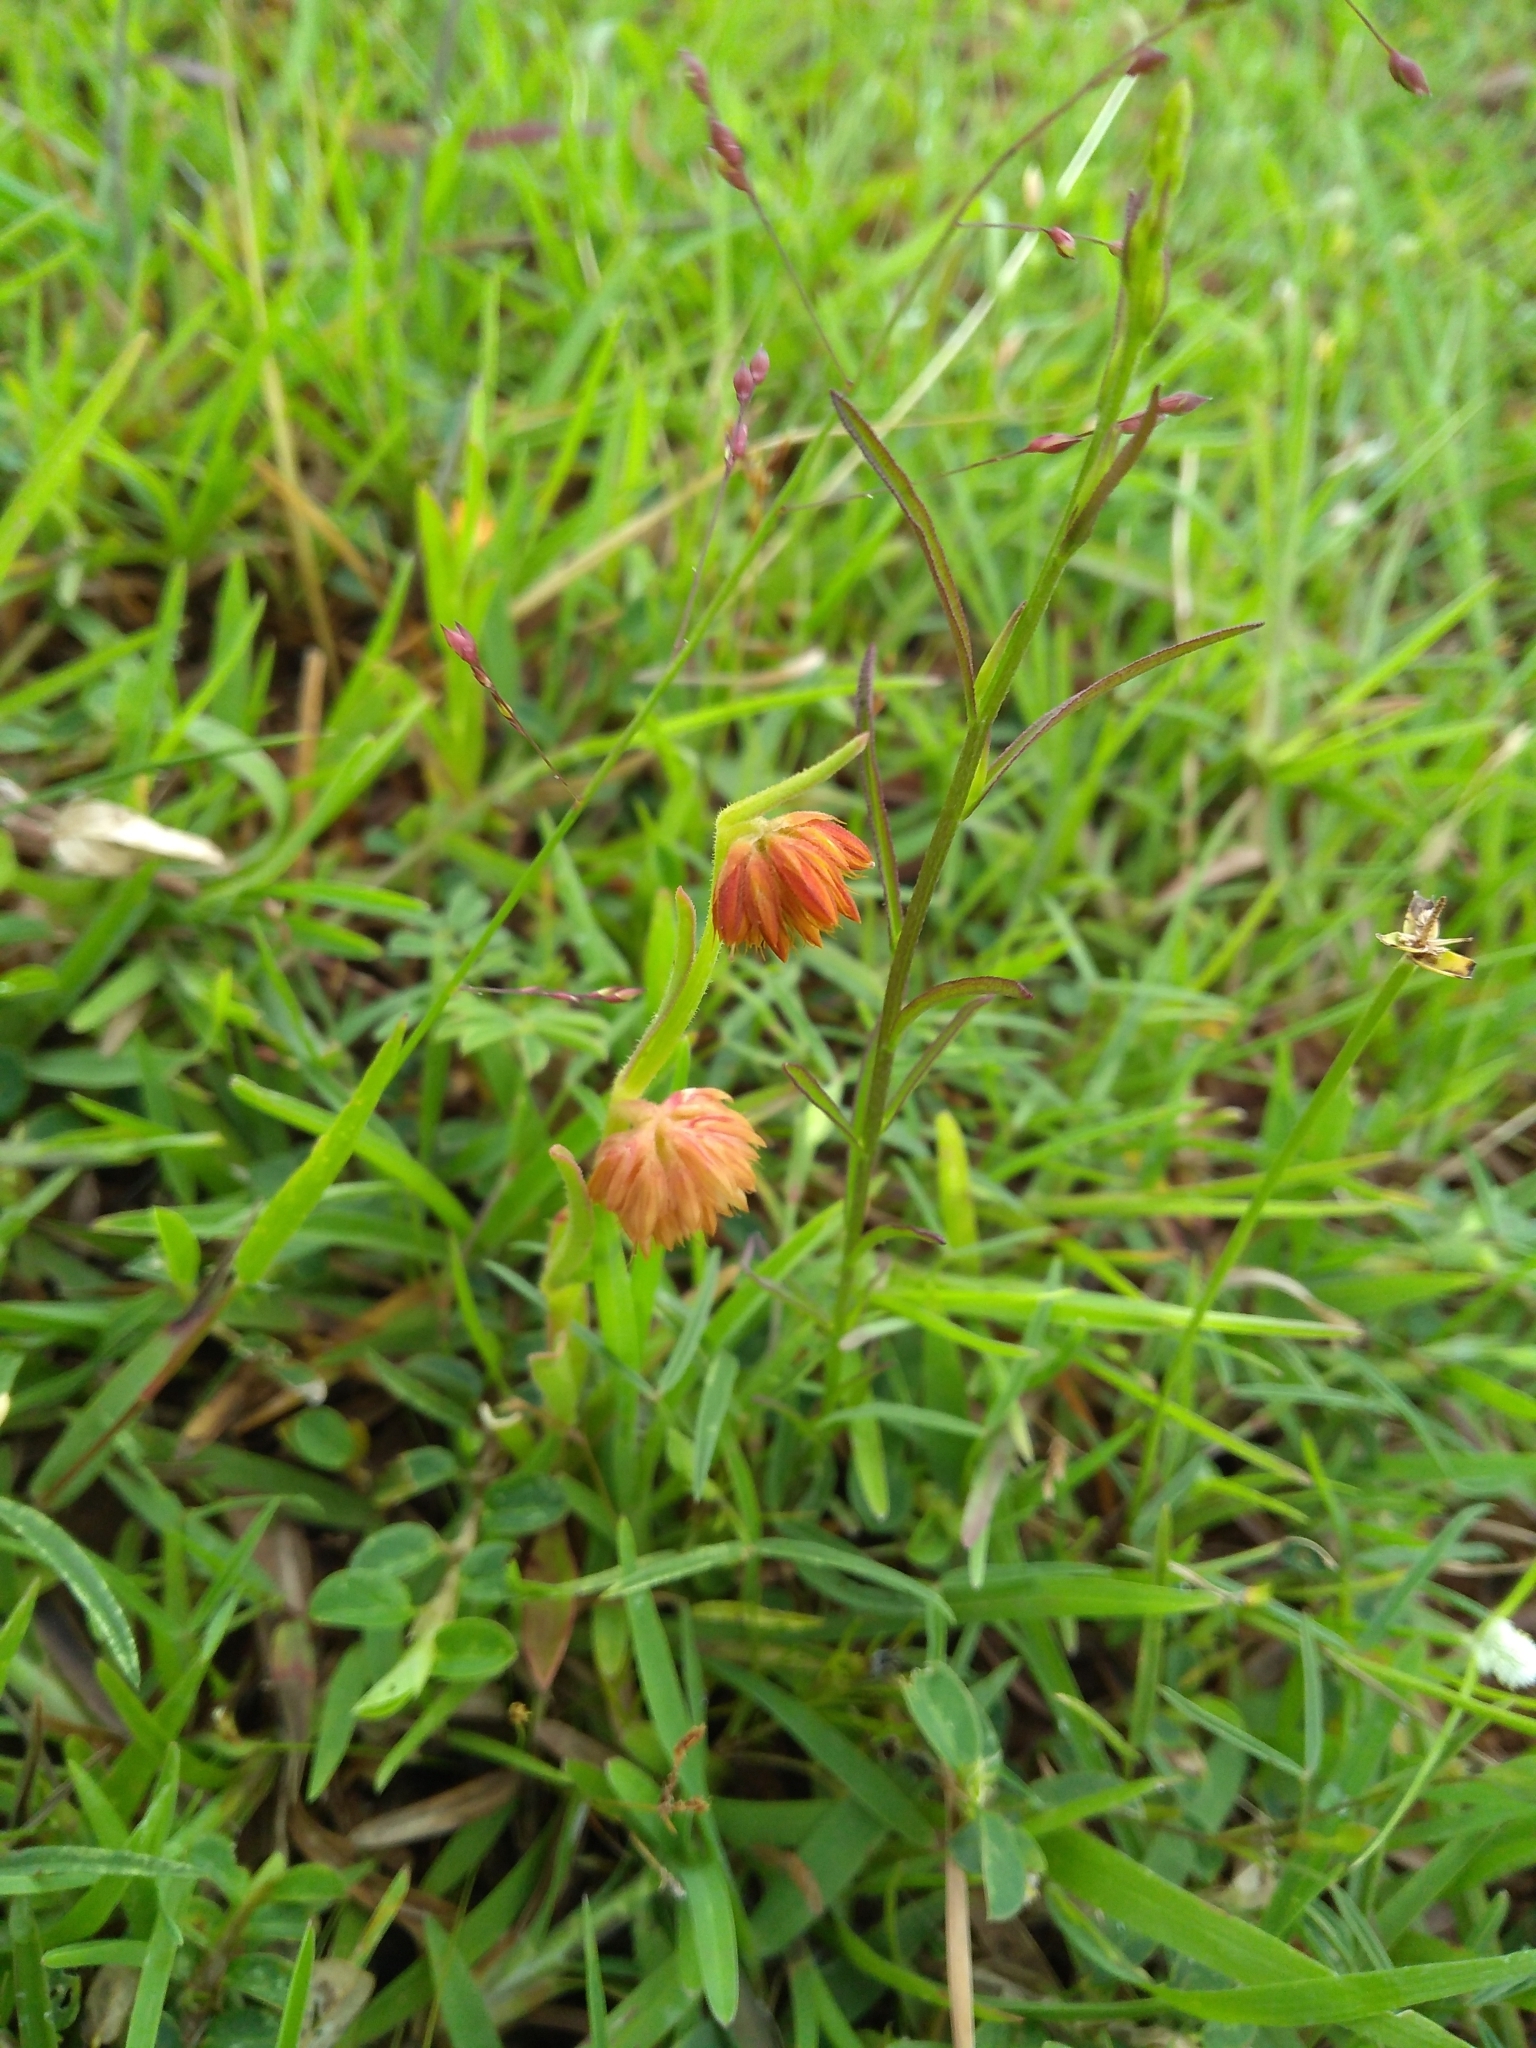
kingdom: Plantae
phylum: Tracheophyta
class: Magnoliopsida
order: Caryophyllales
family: Amaranthaceae
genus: Allmania
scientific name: Allmania nodiflora
